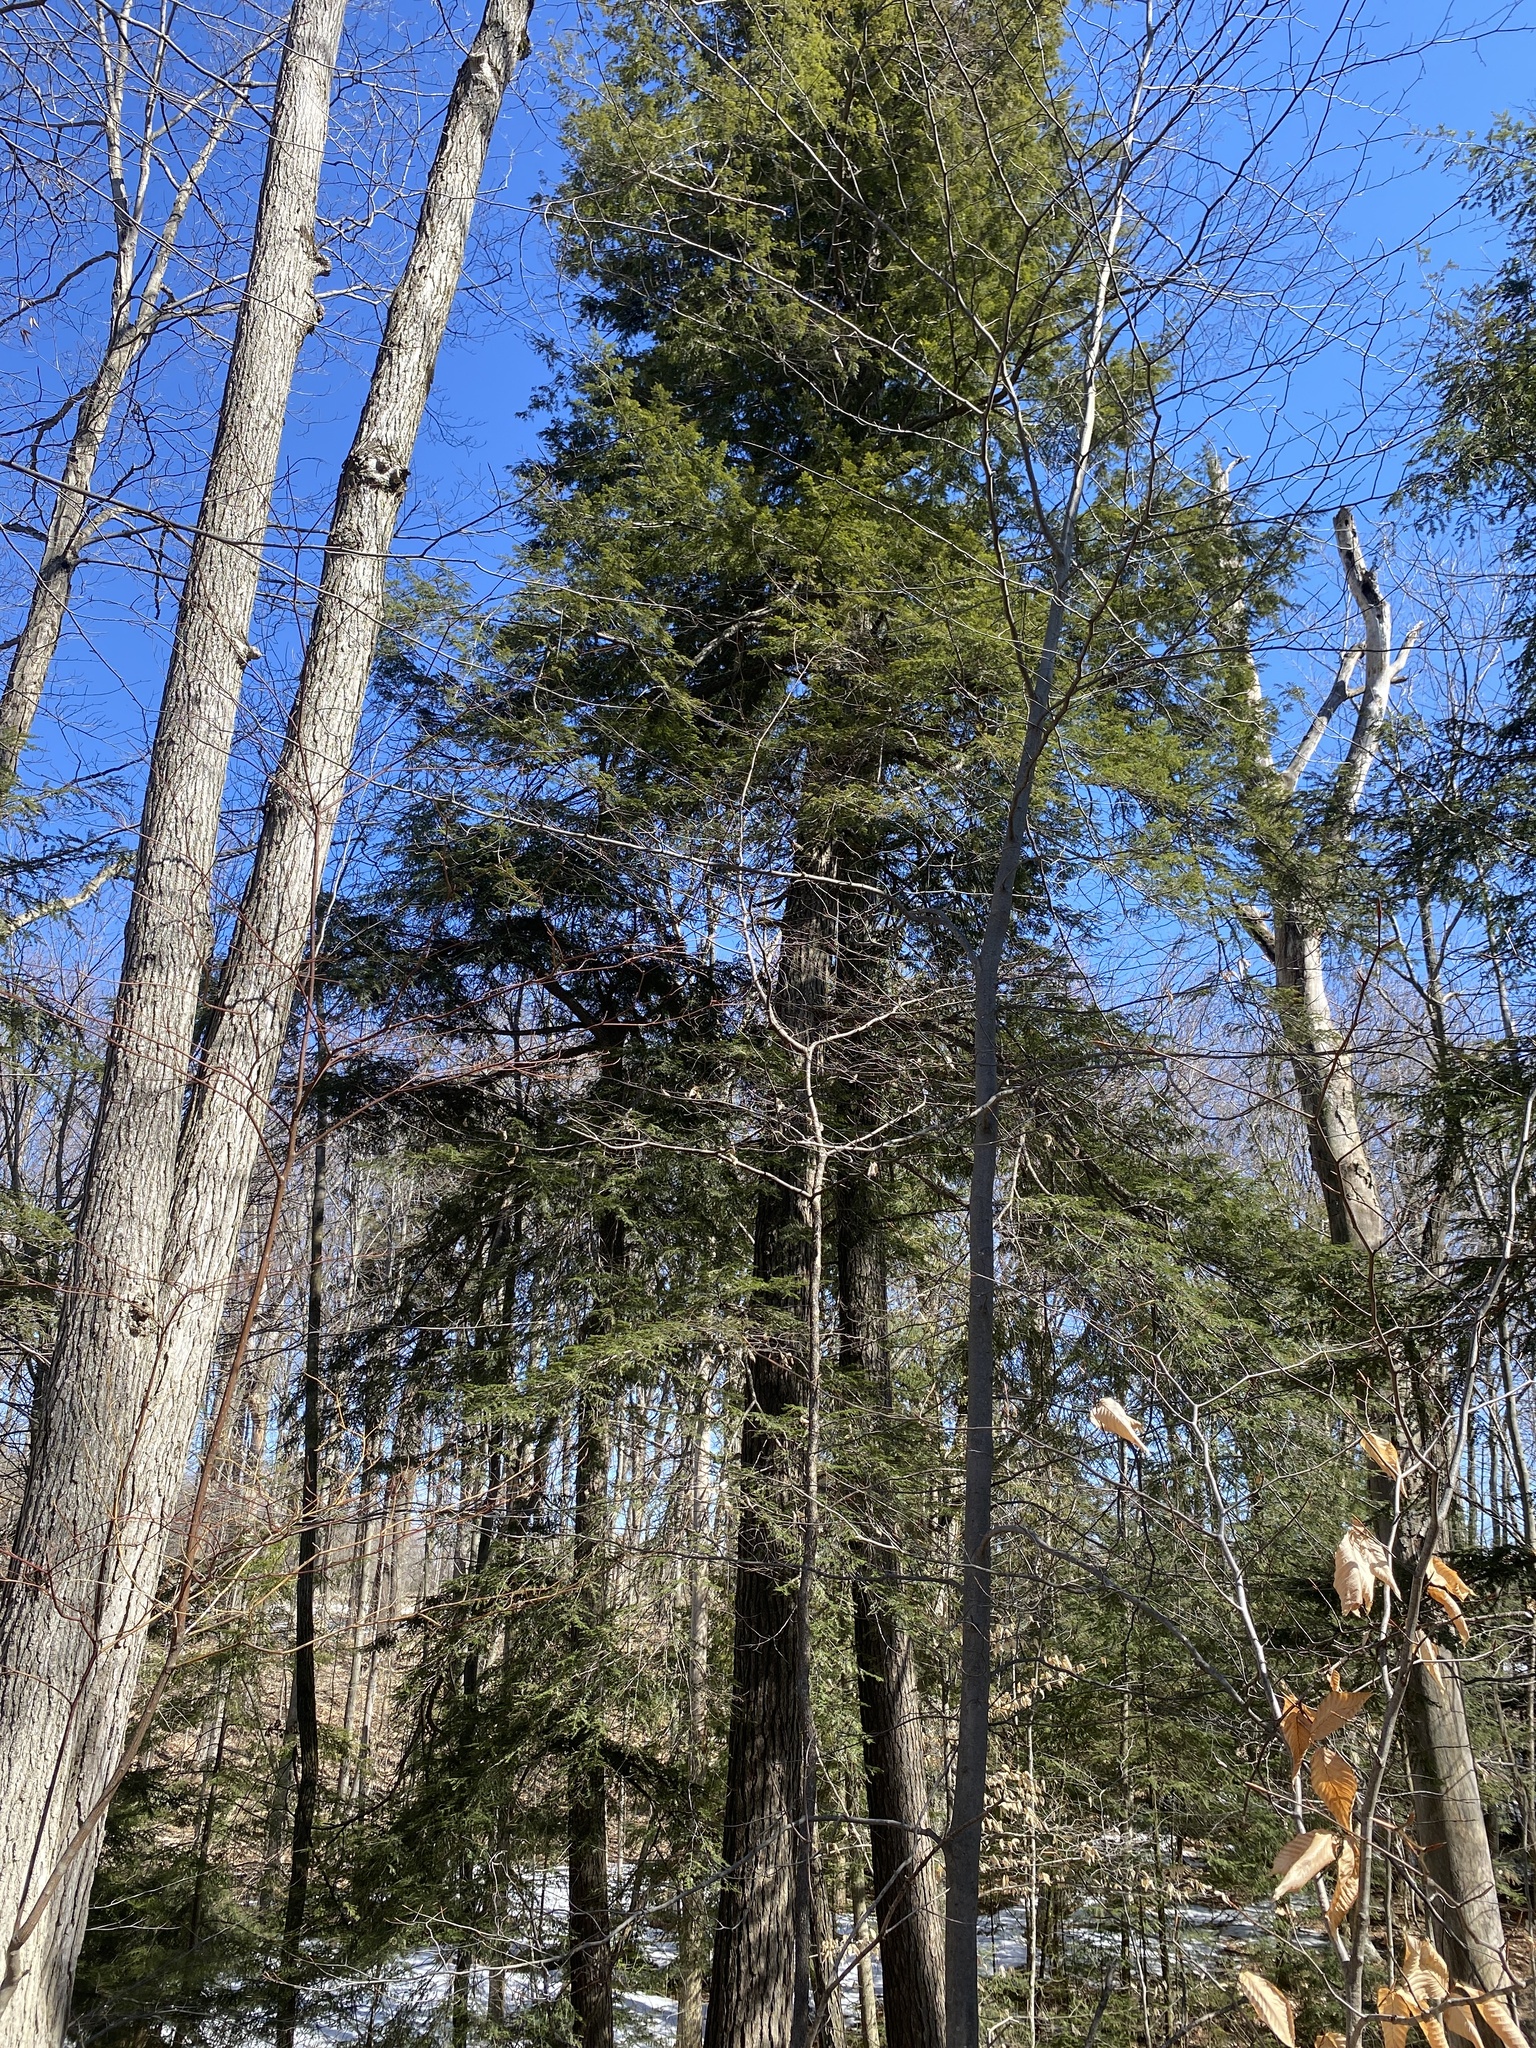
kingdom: Plantae
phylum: Tracheophyta
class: Pinopsida
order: Pinales
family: Pinaceae
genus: Tsuga
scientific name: Tsuga canadensis
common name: Eastern hemlock
